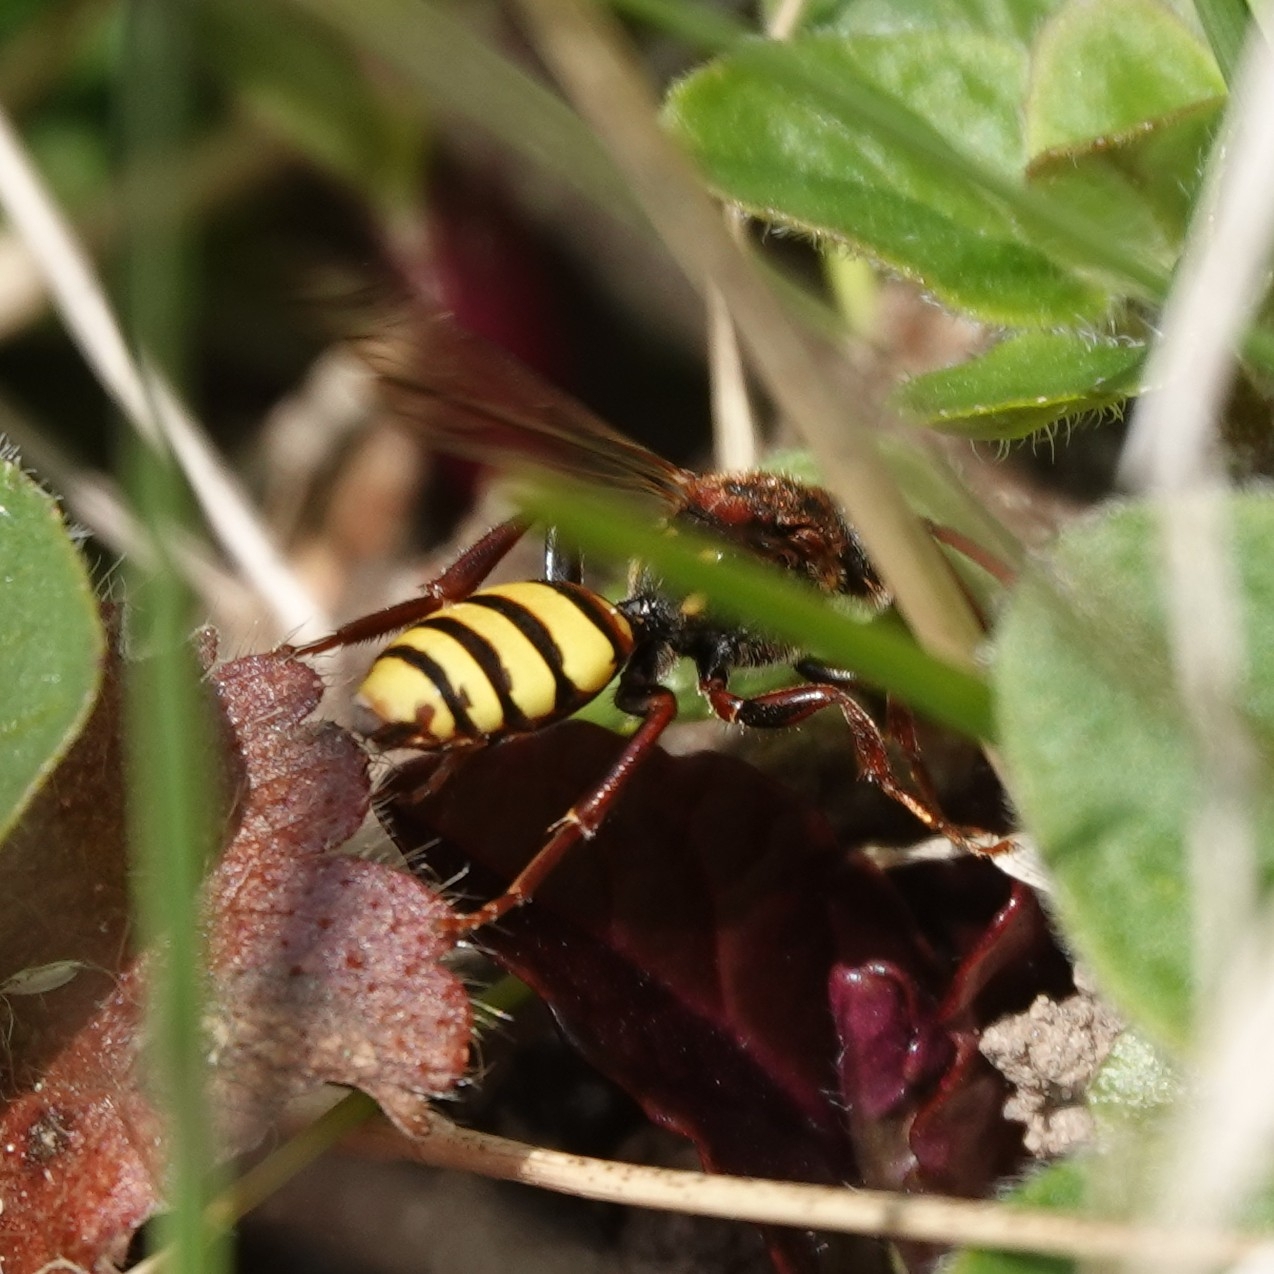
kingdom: Animalia
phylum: Arthropoda
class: Insecta
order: Hymenoptera
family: Apidae
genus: Nomada
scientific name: Nomada signata
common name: Broad-banded nomad bee
